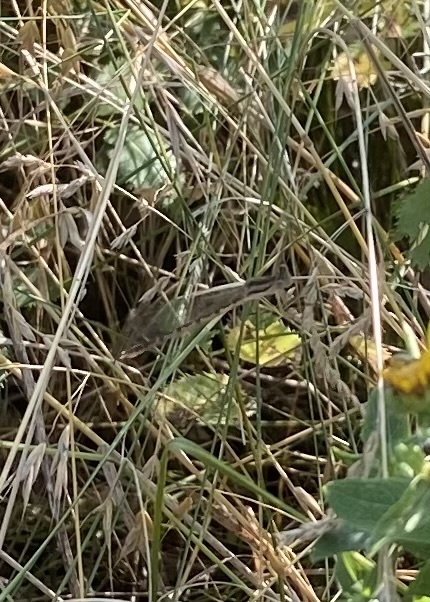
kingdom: Animalia
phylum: Arthropoda
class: Insecta
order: Odonata
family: Lestidae
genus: Sympecma
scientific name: Sympecma fusca
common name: Common winter damsel
